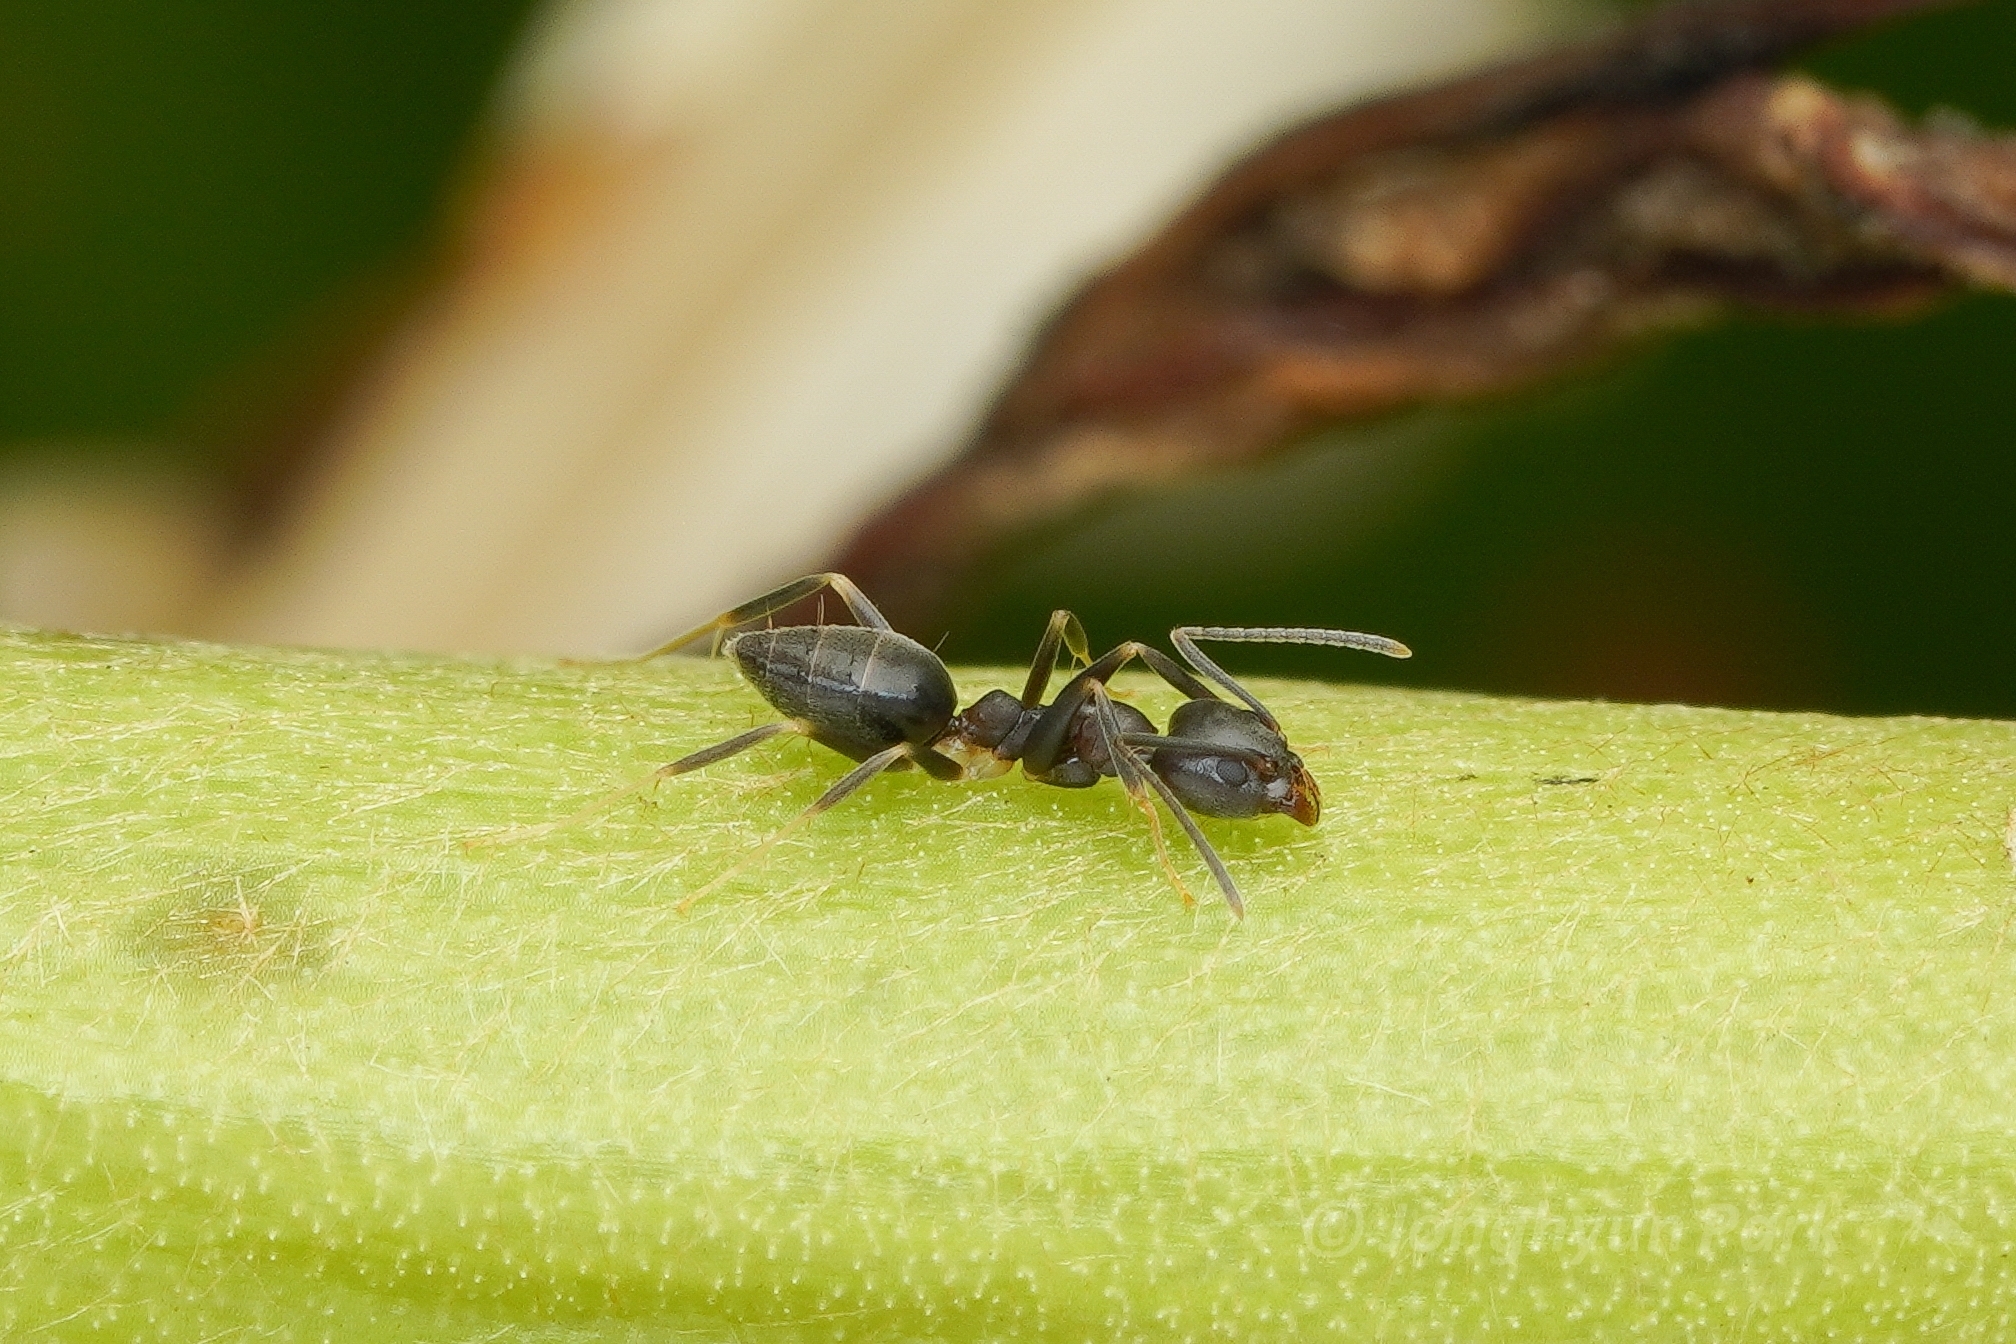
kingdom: Animalia
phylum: Arthropoda
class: Insecta
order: Hymenoptera
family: Formicidae
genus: Technomyrmex
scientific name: Technomyrmex
